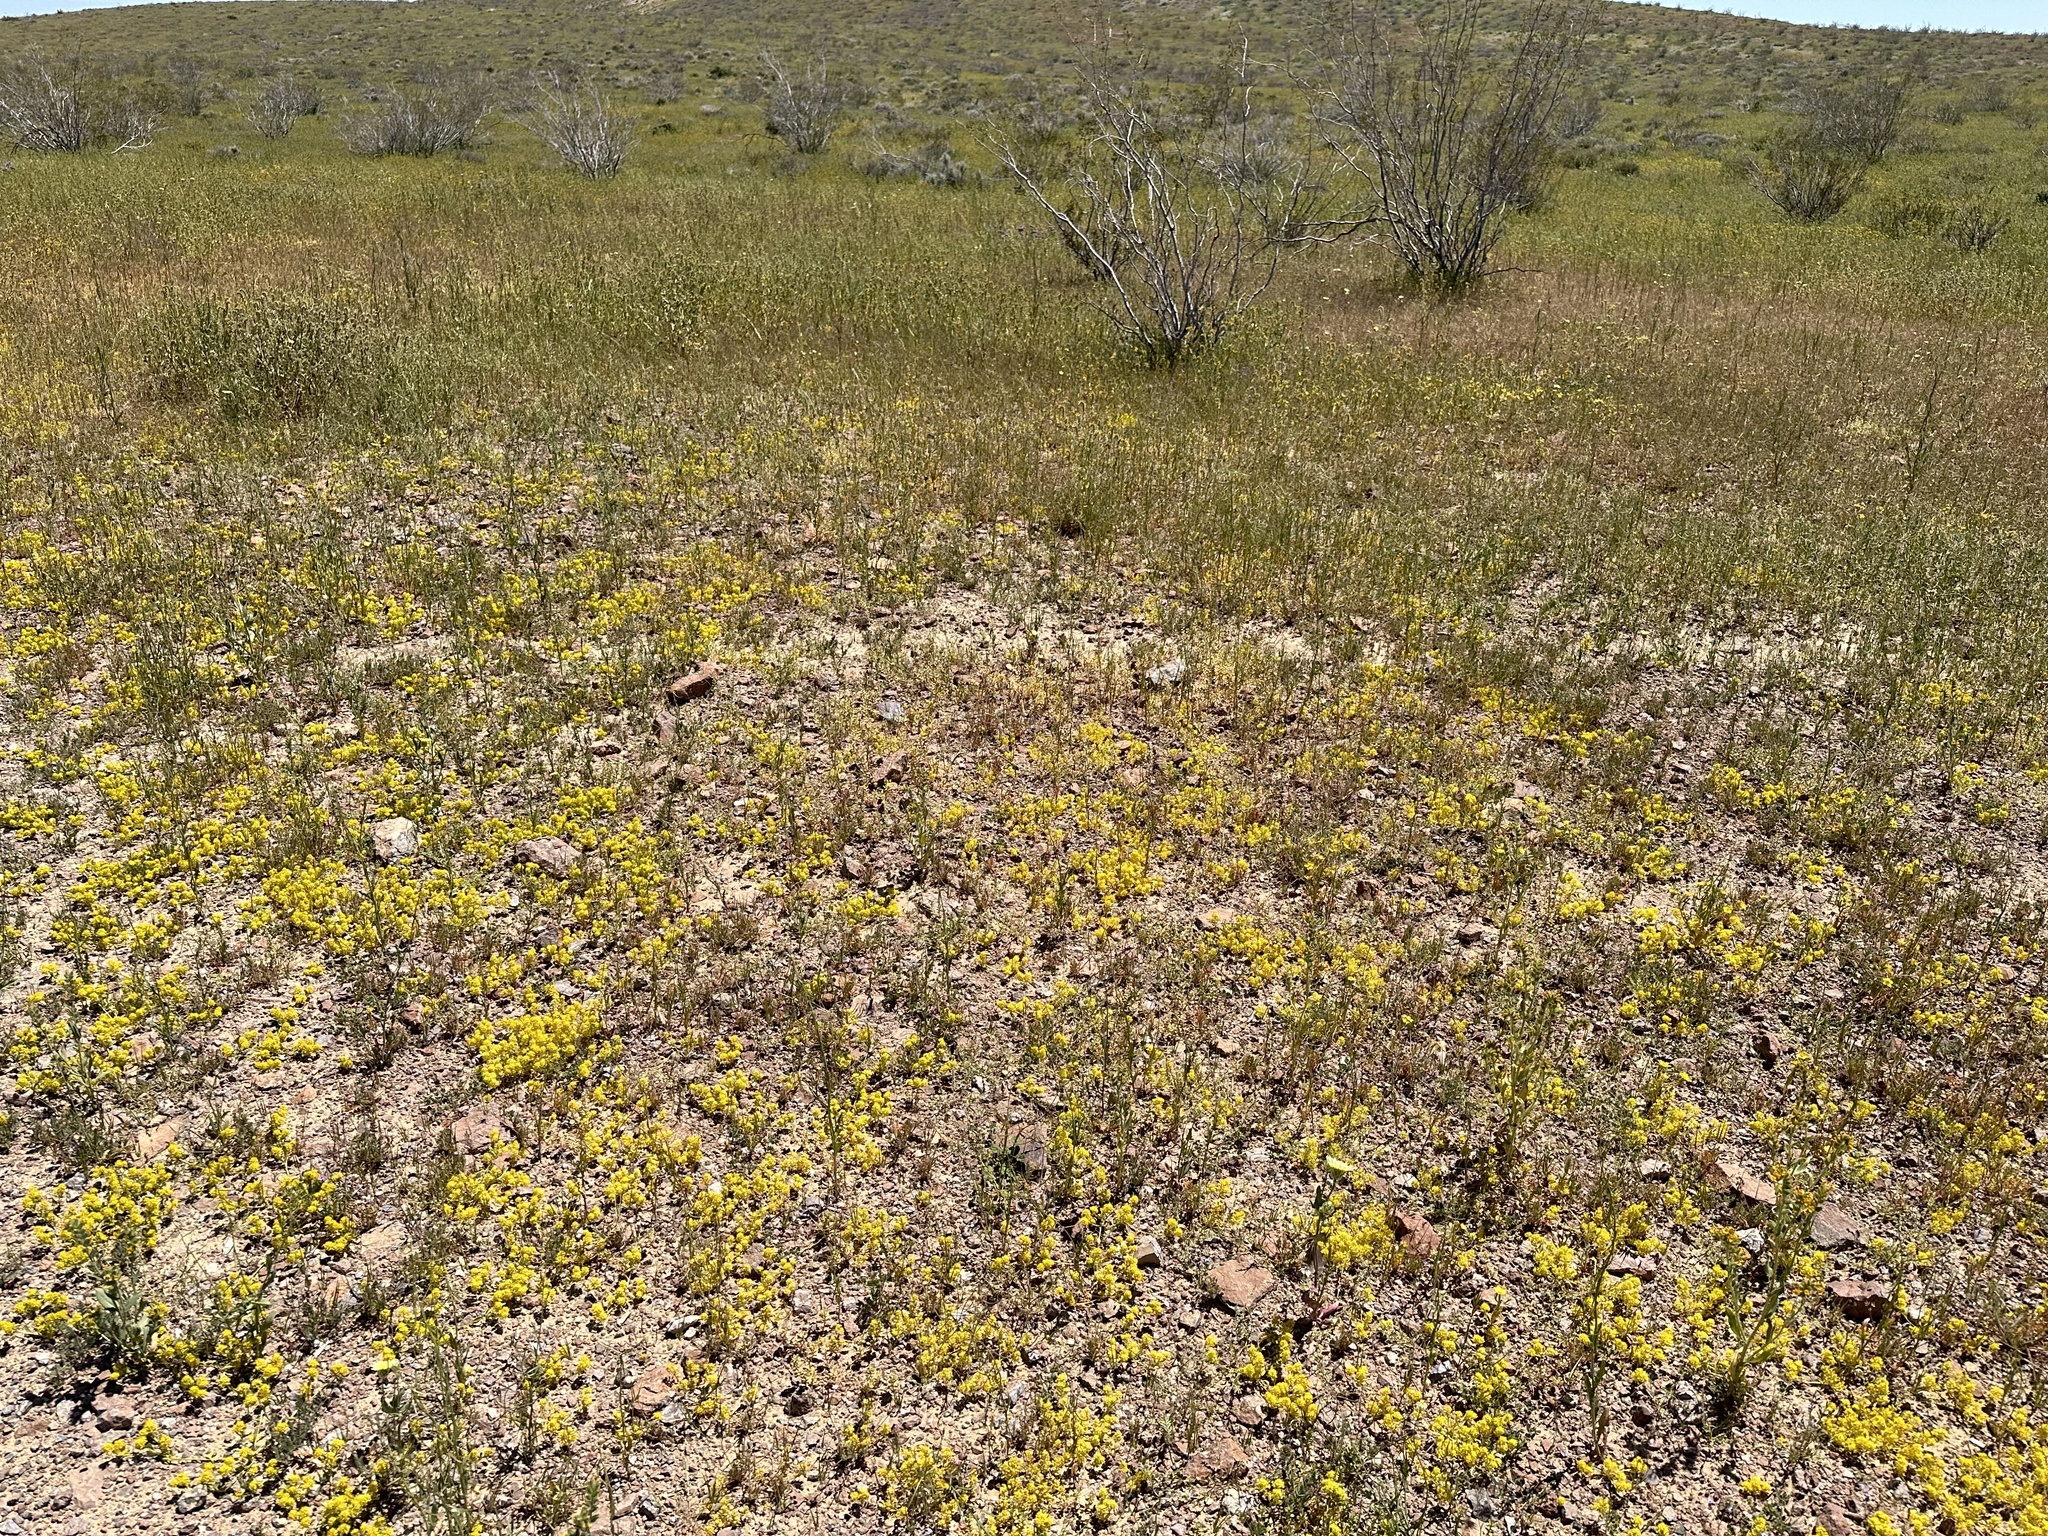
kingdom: Plantae
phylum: Tracheophyta
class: Magnoliopsida
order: Brassicales
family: Brassicaceae
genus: Lepidium
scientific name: Lepidium flavum
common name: Yellow pepperwort
